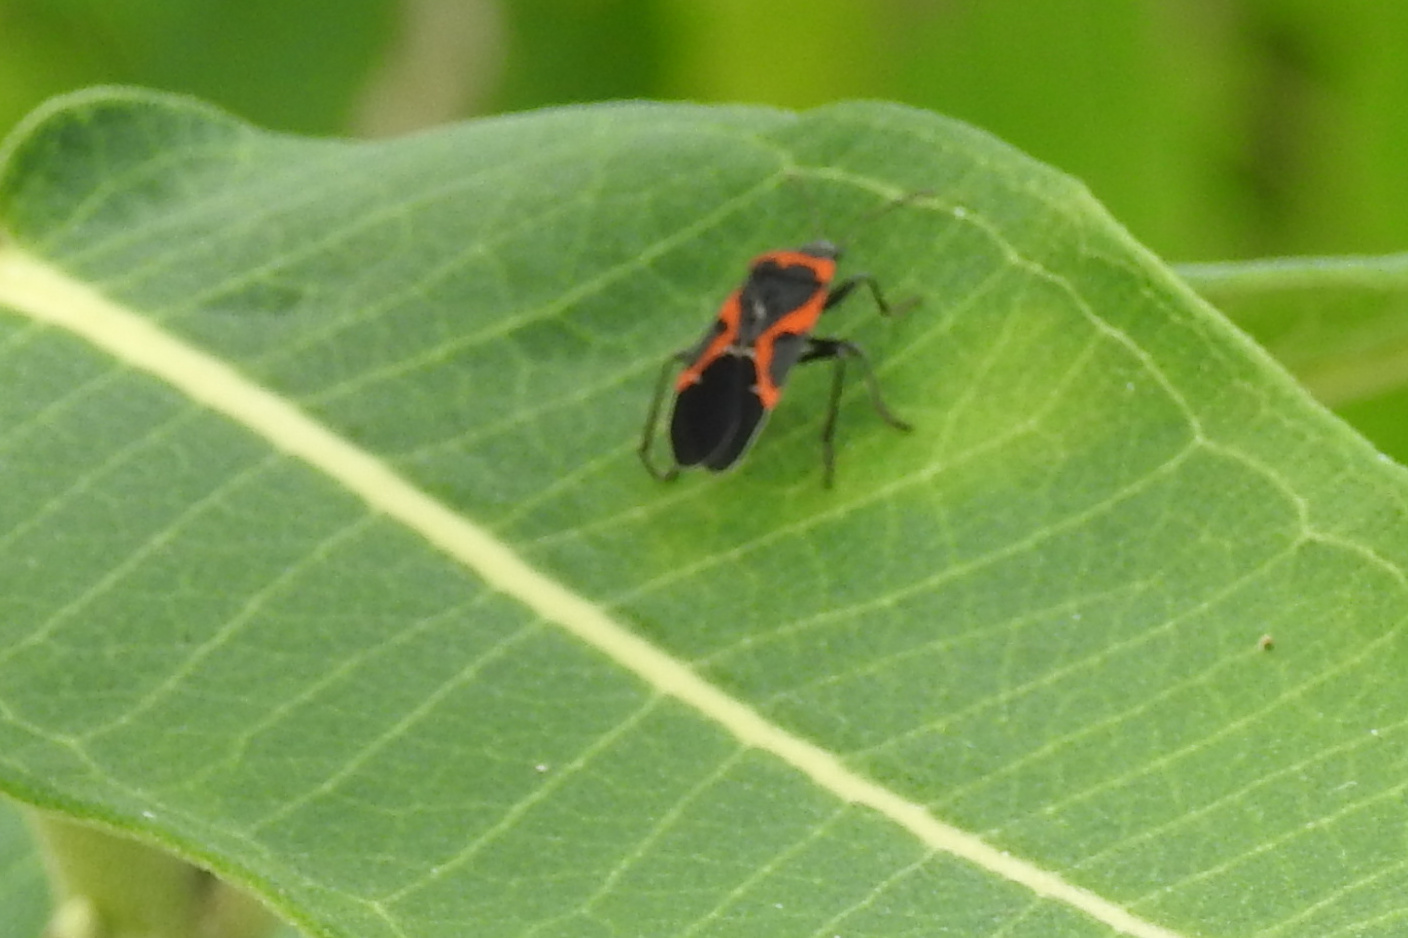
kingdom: Animalia
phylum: Arthropoda
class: Insecta
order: Hemiptera
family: Lygaeidae
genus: Lygaeus
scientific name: Lygaeus kalmii
